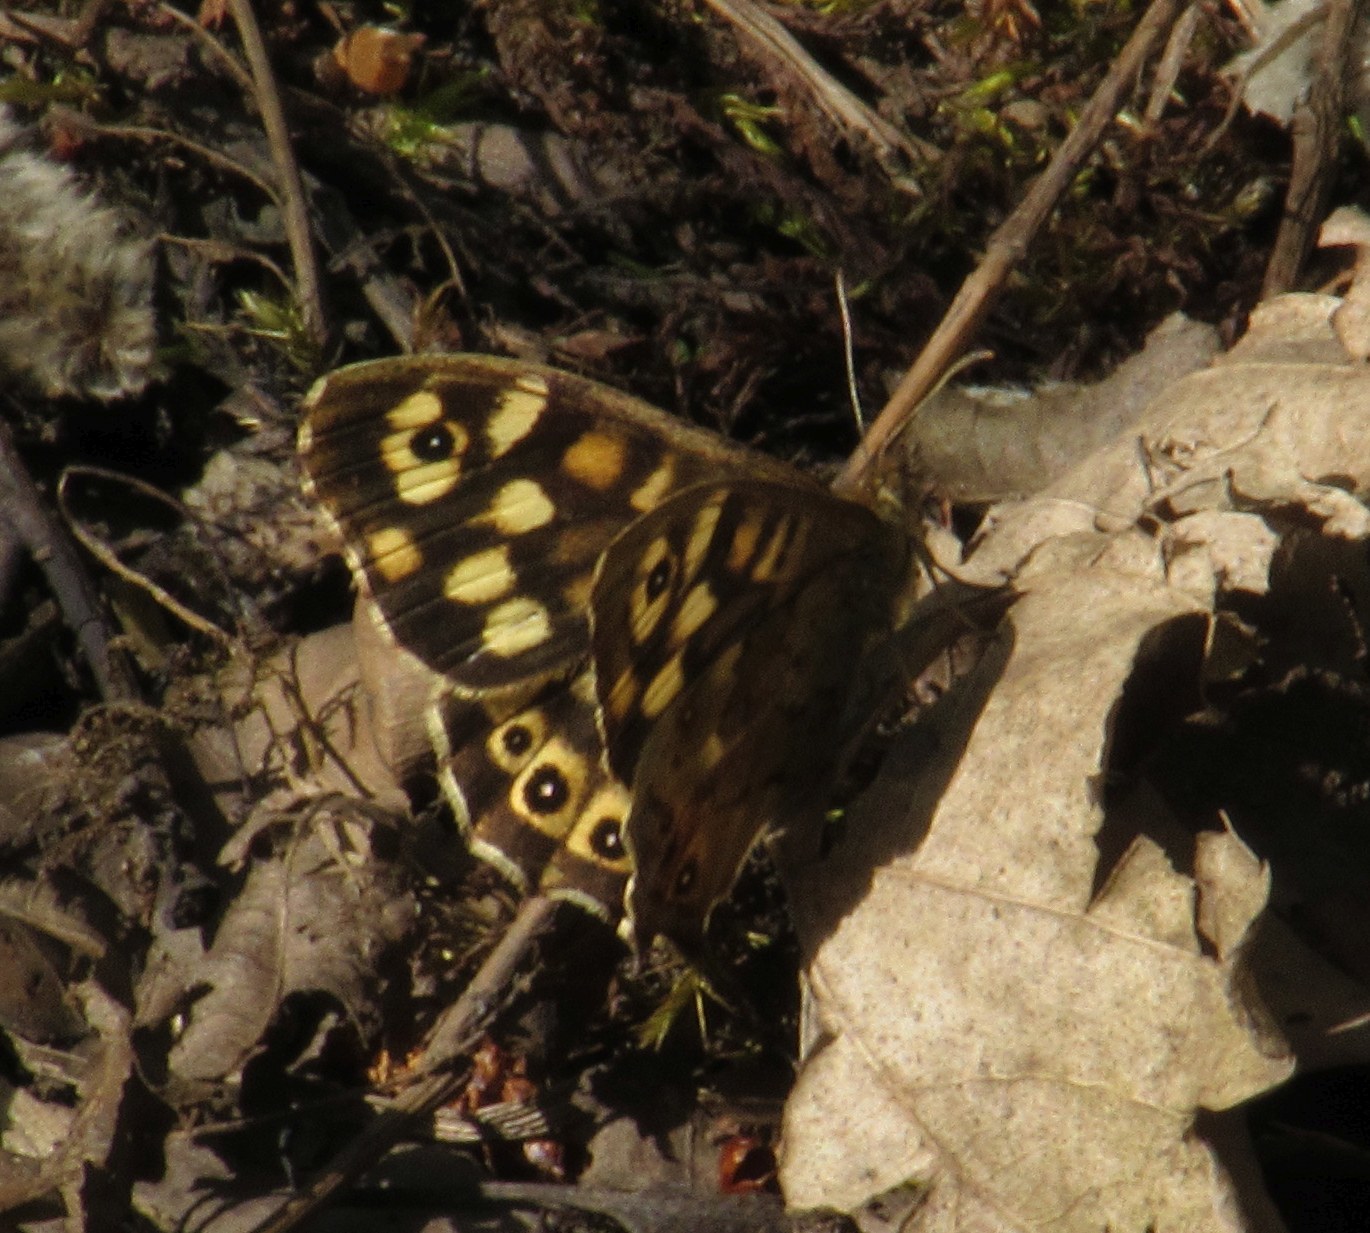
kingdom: Animalia
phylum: Arthropoda
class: Insecta
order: Lepidoptera
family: Nymphalidae
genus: Pararge
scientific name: Pararge aegeria
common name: Speckled wood
